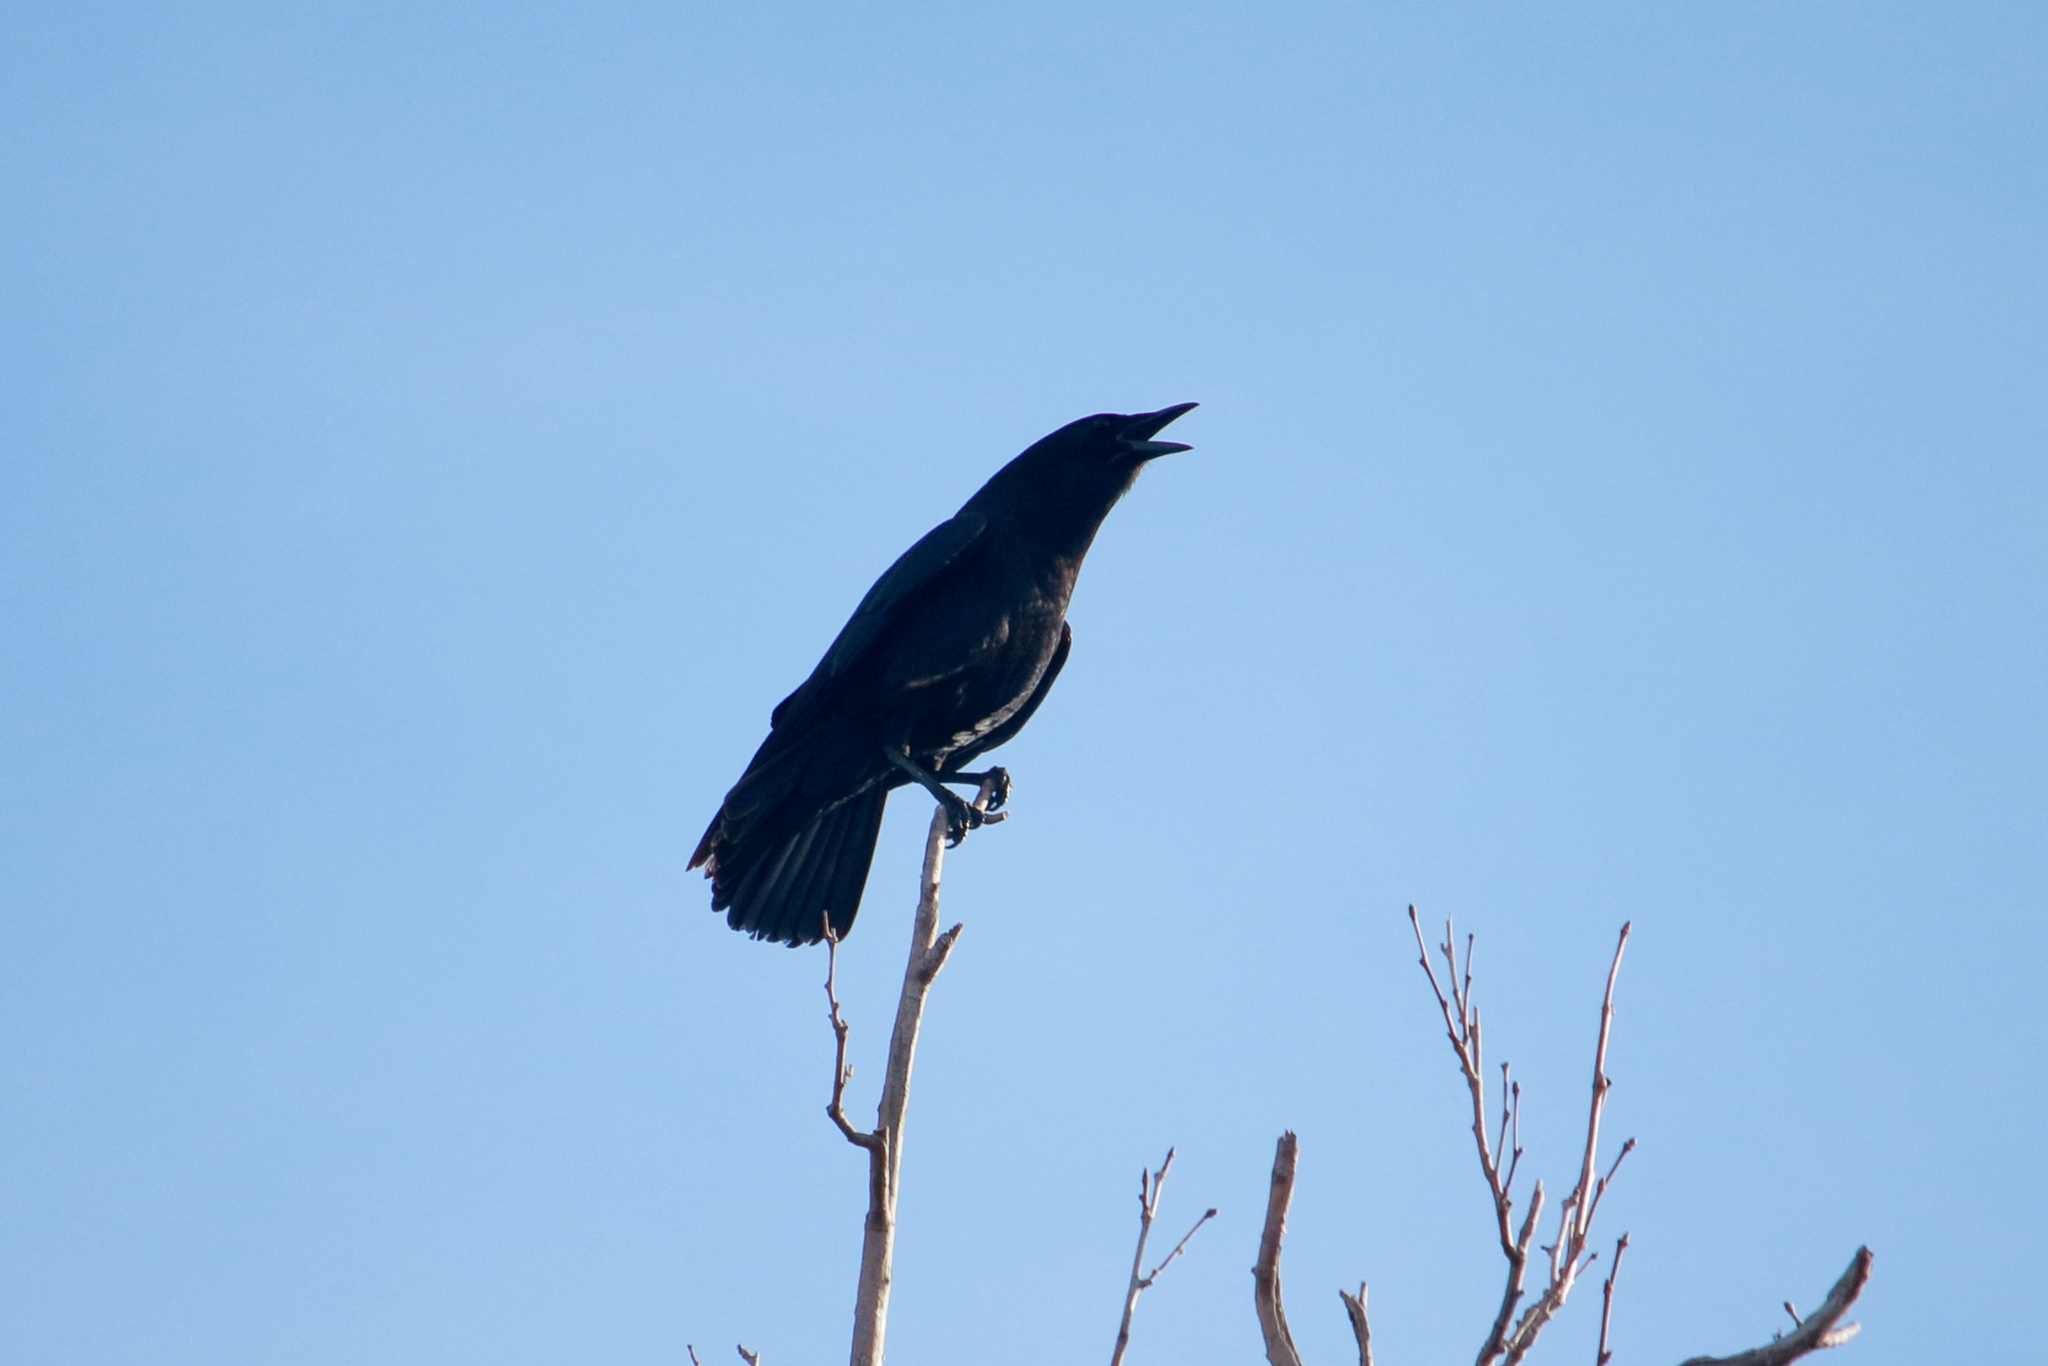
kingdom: Animalia
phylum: Chordata
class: Aves
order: Passeriformes
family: Corvidae
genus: Corvus
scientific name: Corvus brachyrhynchos
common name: American crow
